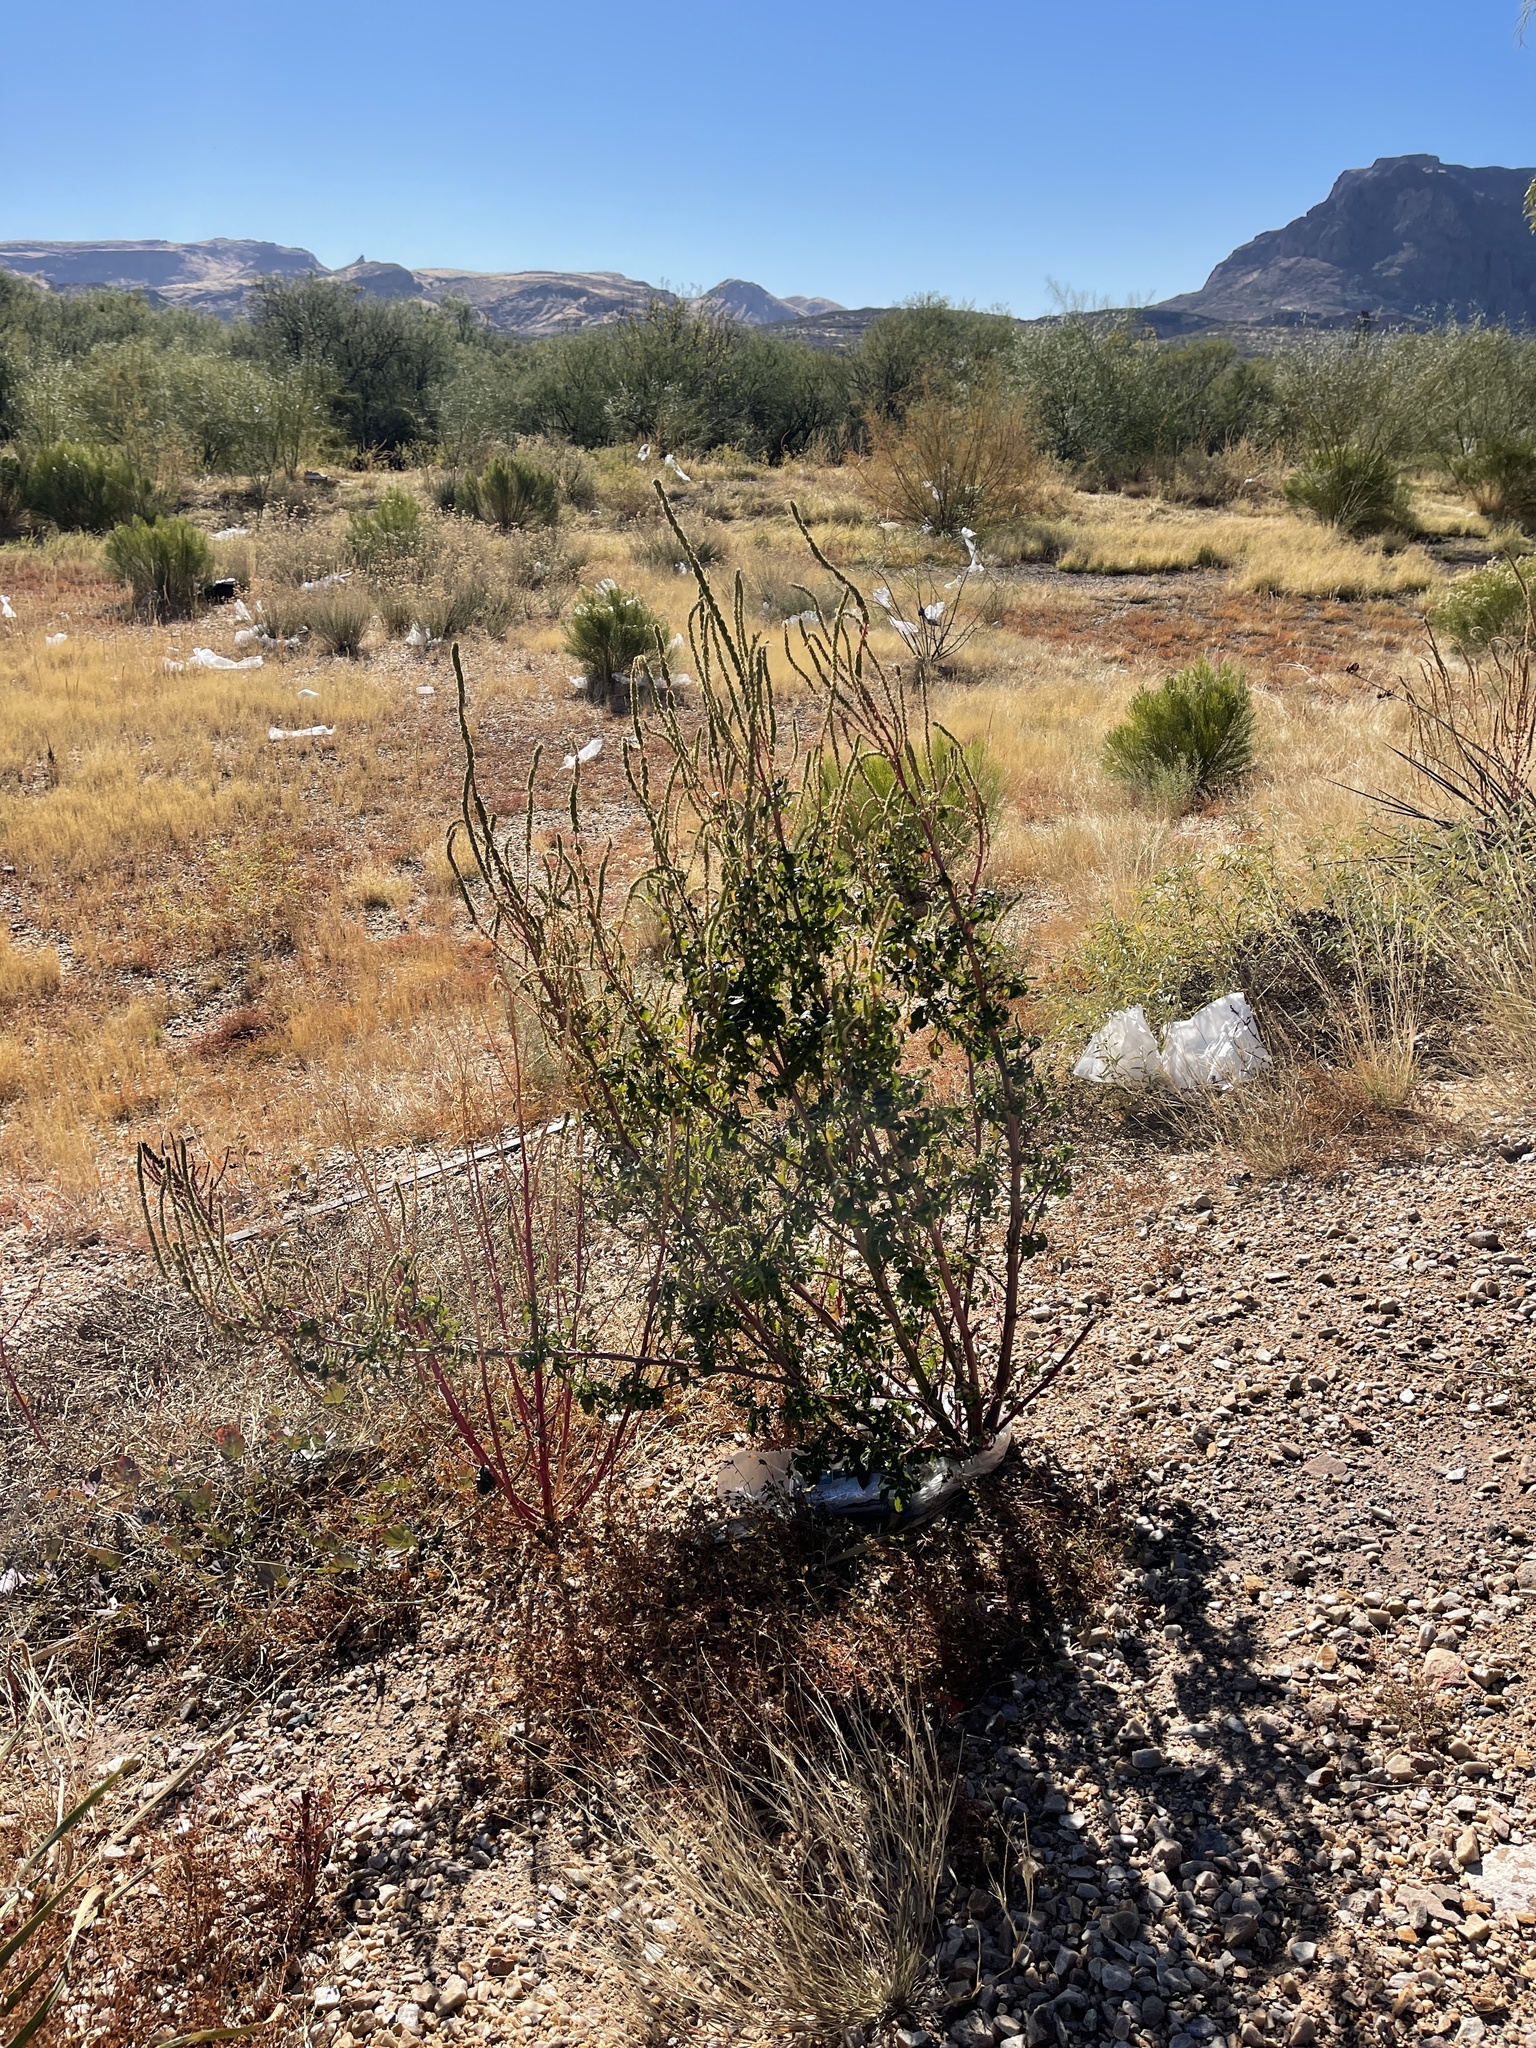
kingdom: Plantae
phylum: Tracheophyta
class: Magnoliopsida
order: Caryophyllales
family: Amaranthaceae
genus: Amaranthus
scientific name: Amaranthus palmeri
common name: Dioecious amaranth
